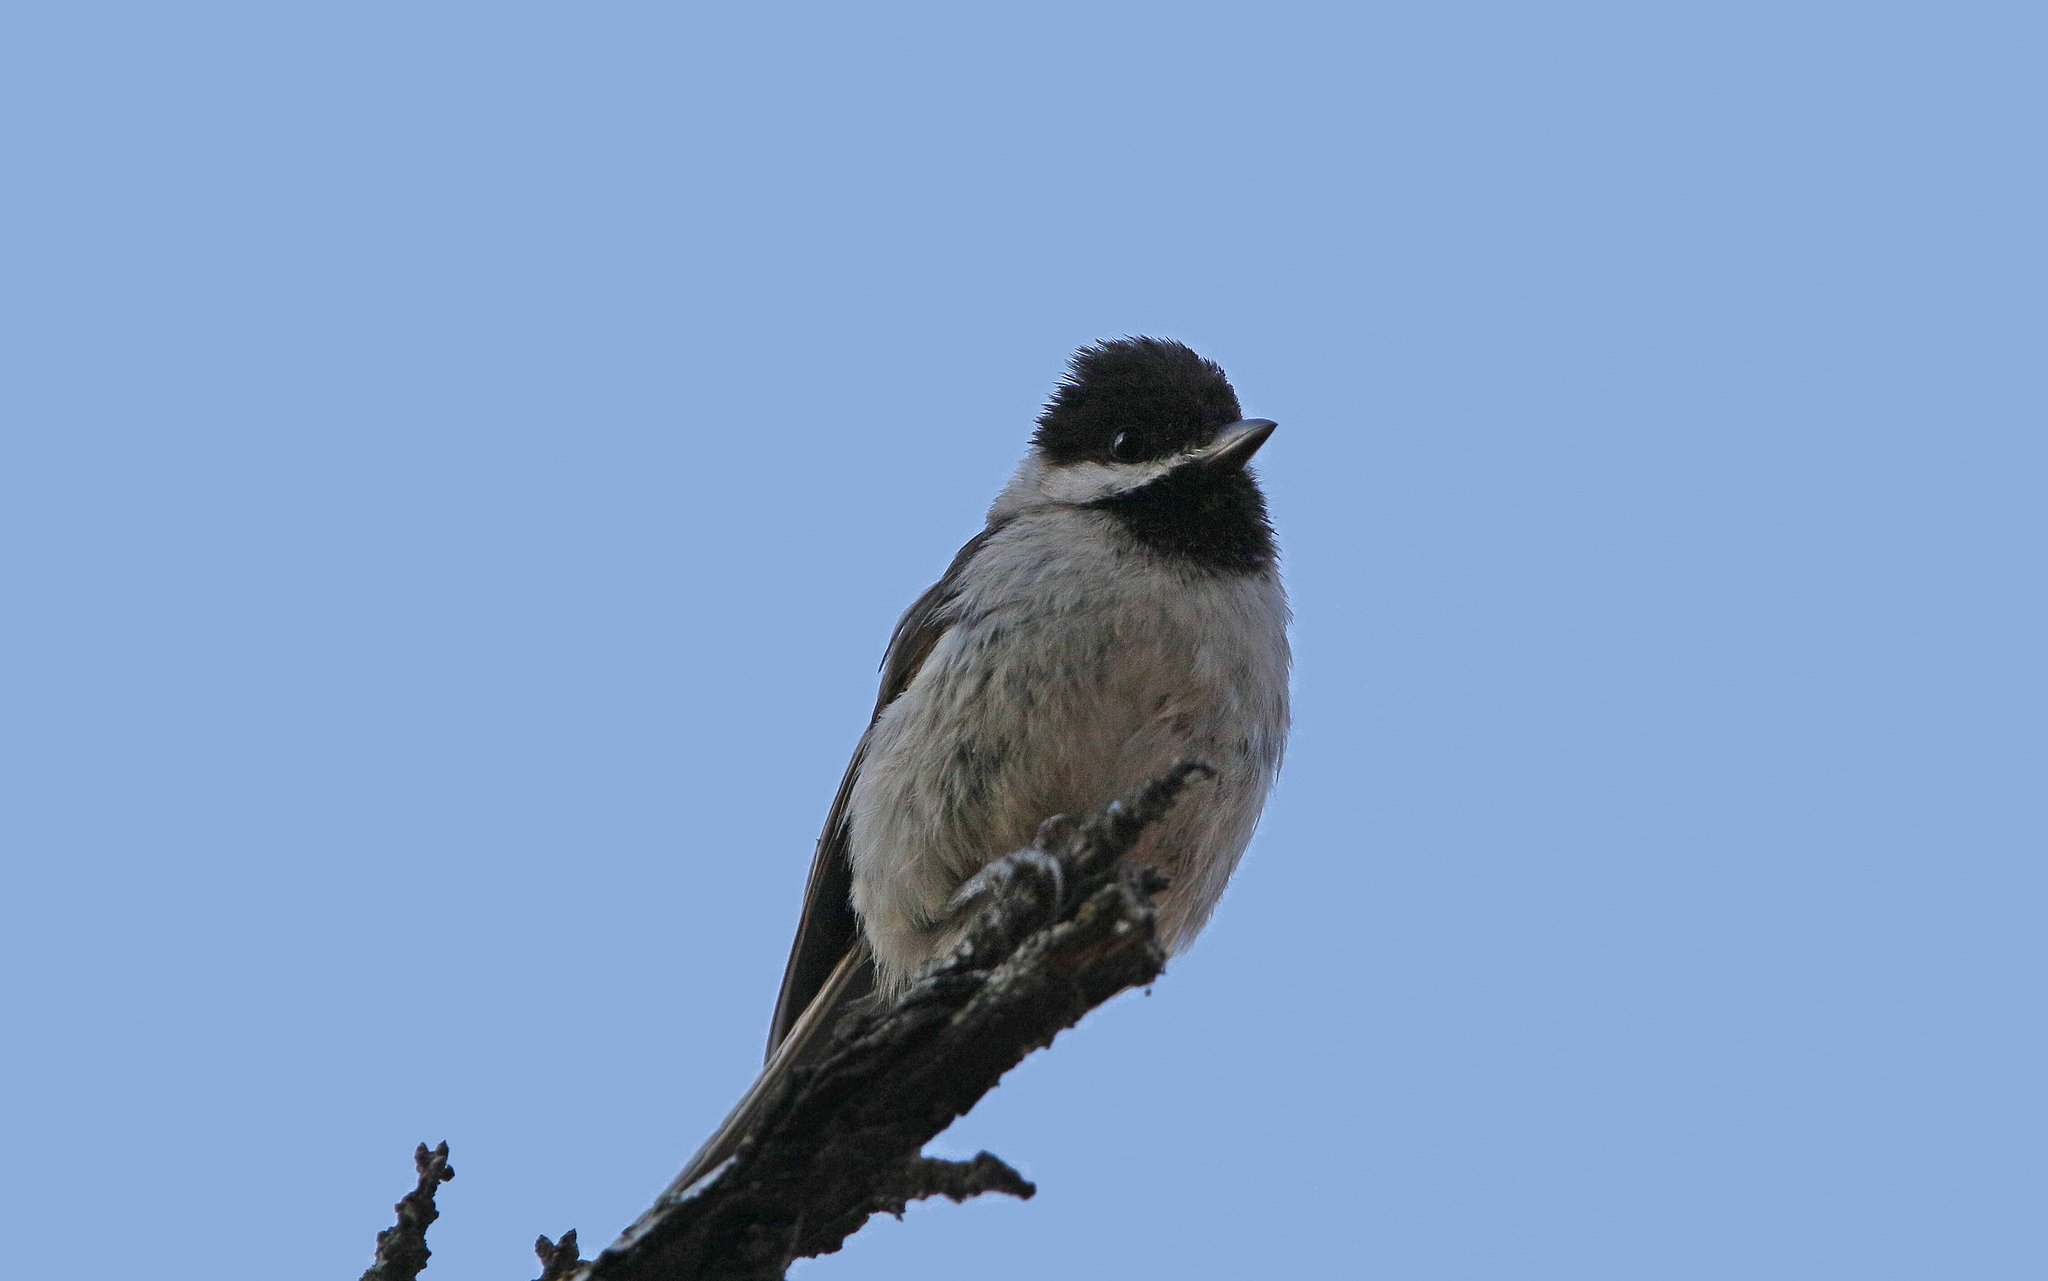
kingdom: Animalia
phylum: Chordata
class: Aves
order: Passeriformes
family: Paridae
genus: Poecile
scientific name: Poecile lugubris
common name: Sombre tit
